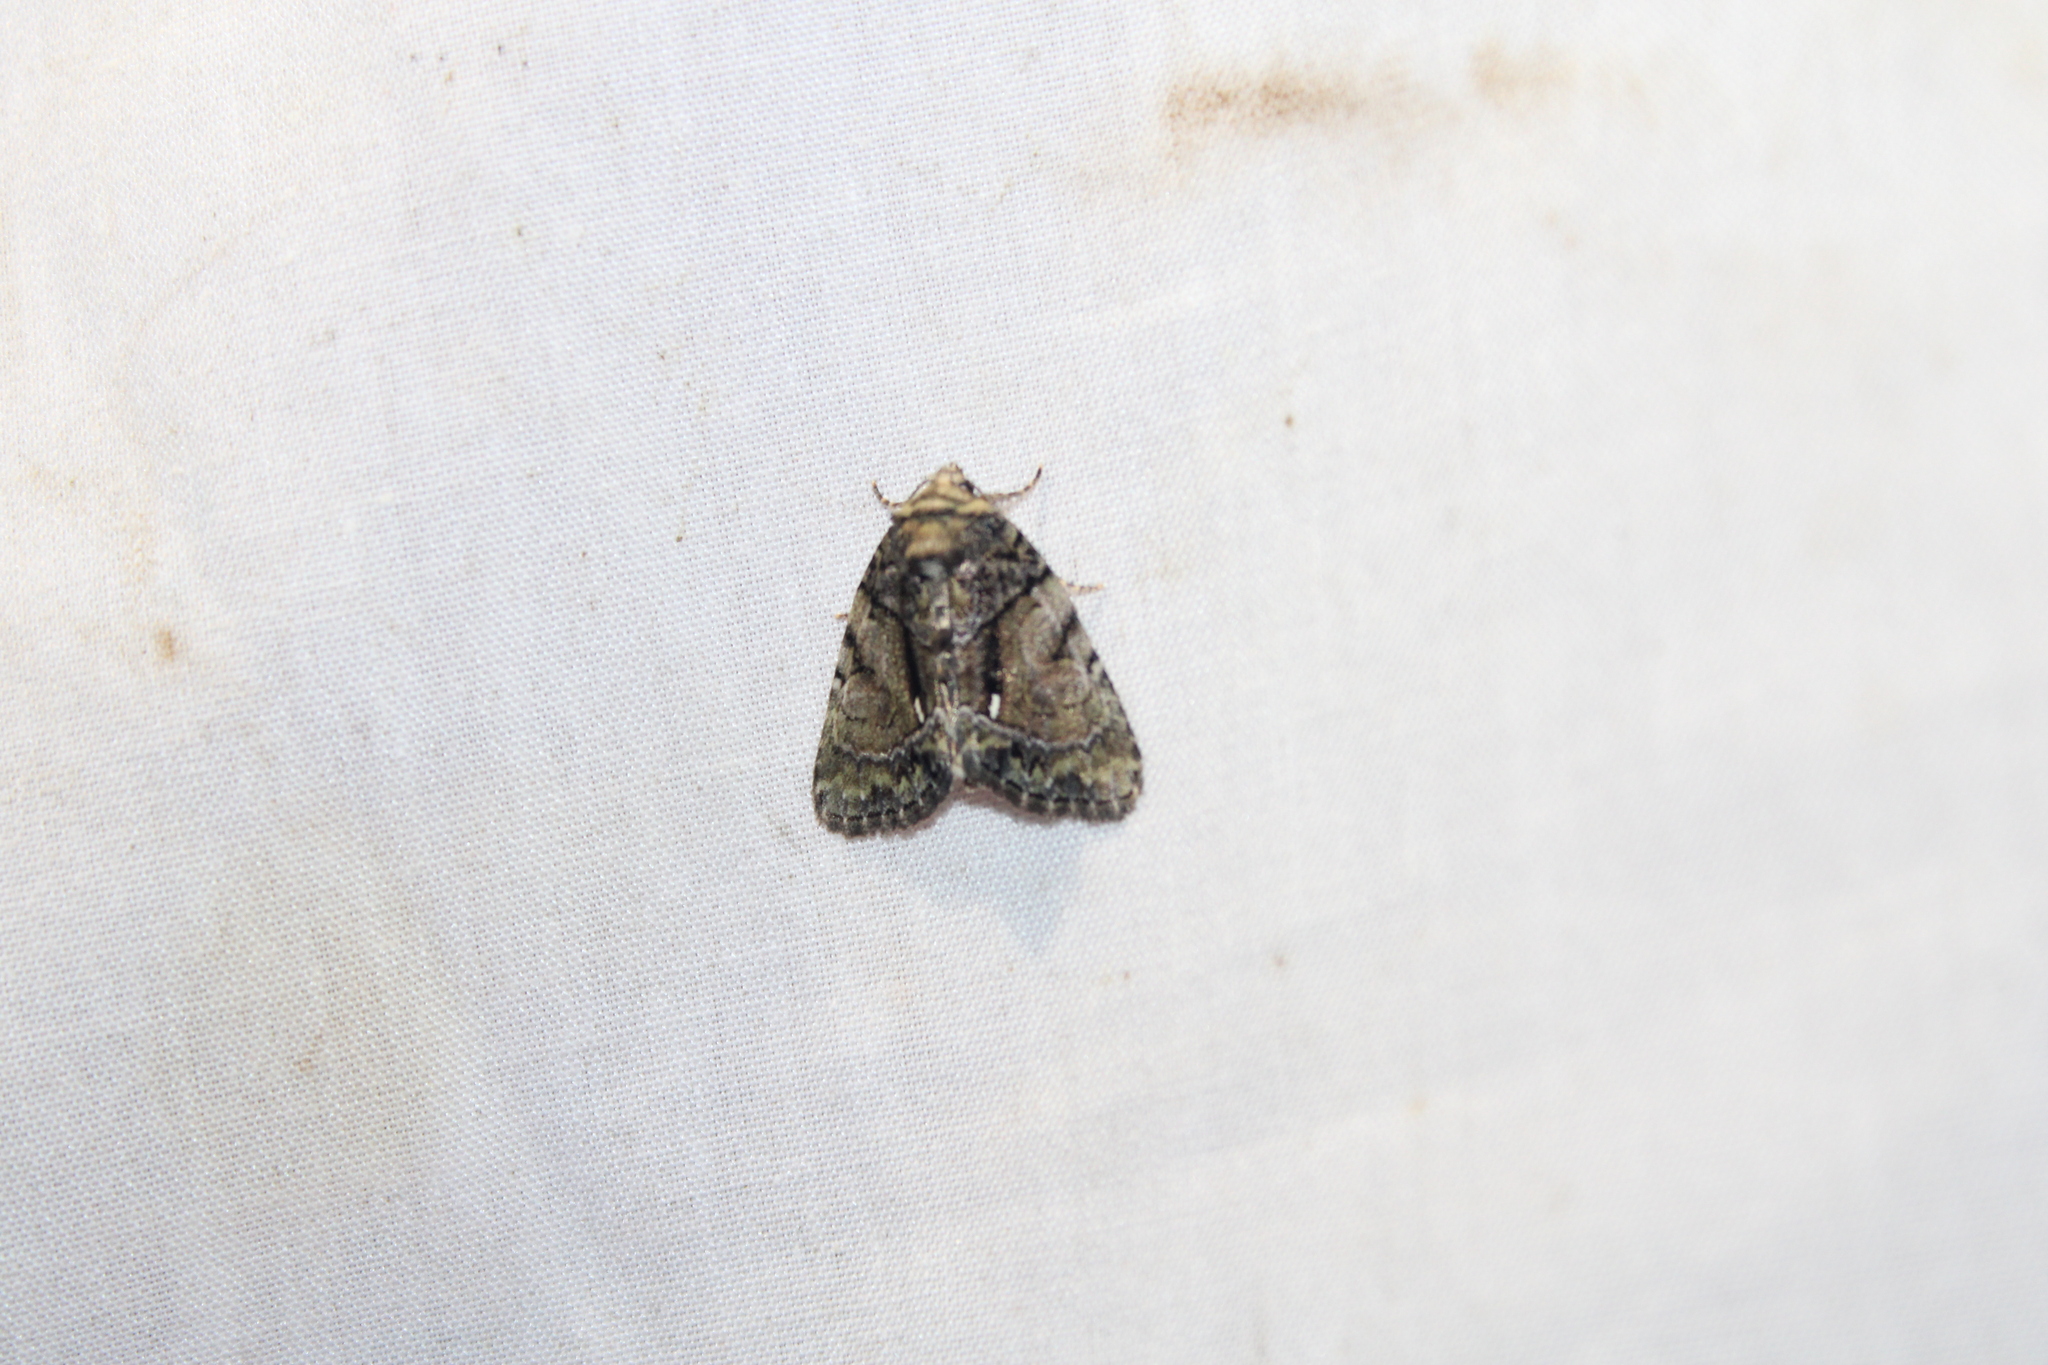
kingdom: Animalia
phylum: Arthropoda
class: Insecta
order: Lepidoptera
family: Noctuidae
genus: Chytonix
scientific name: Chytonix palliatricula
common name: Cloaked marvel
